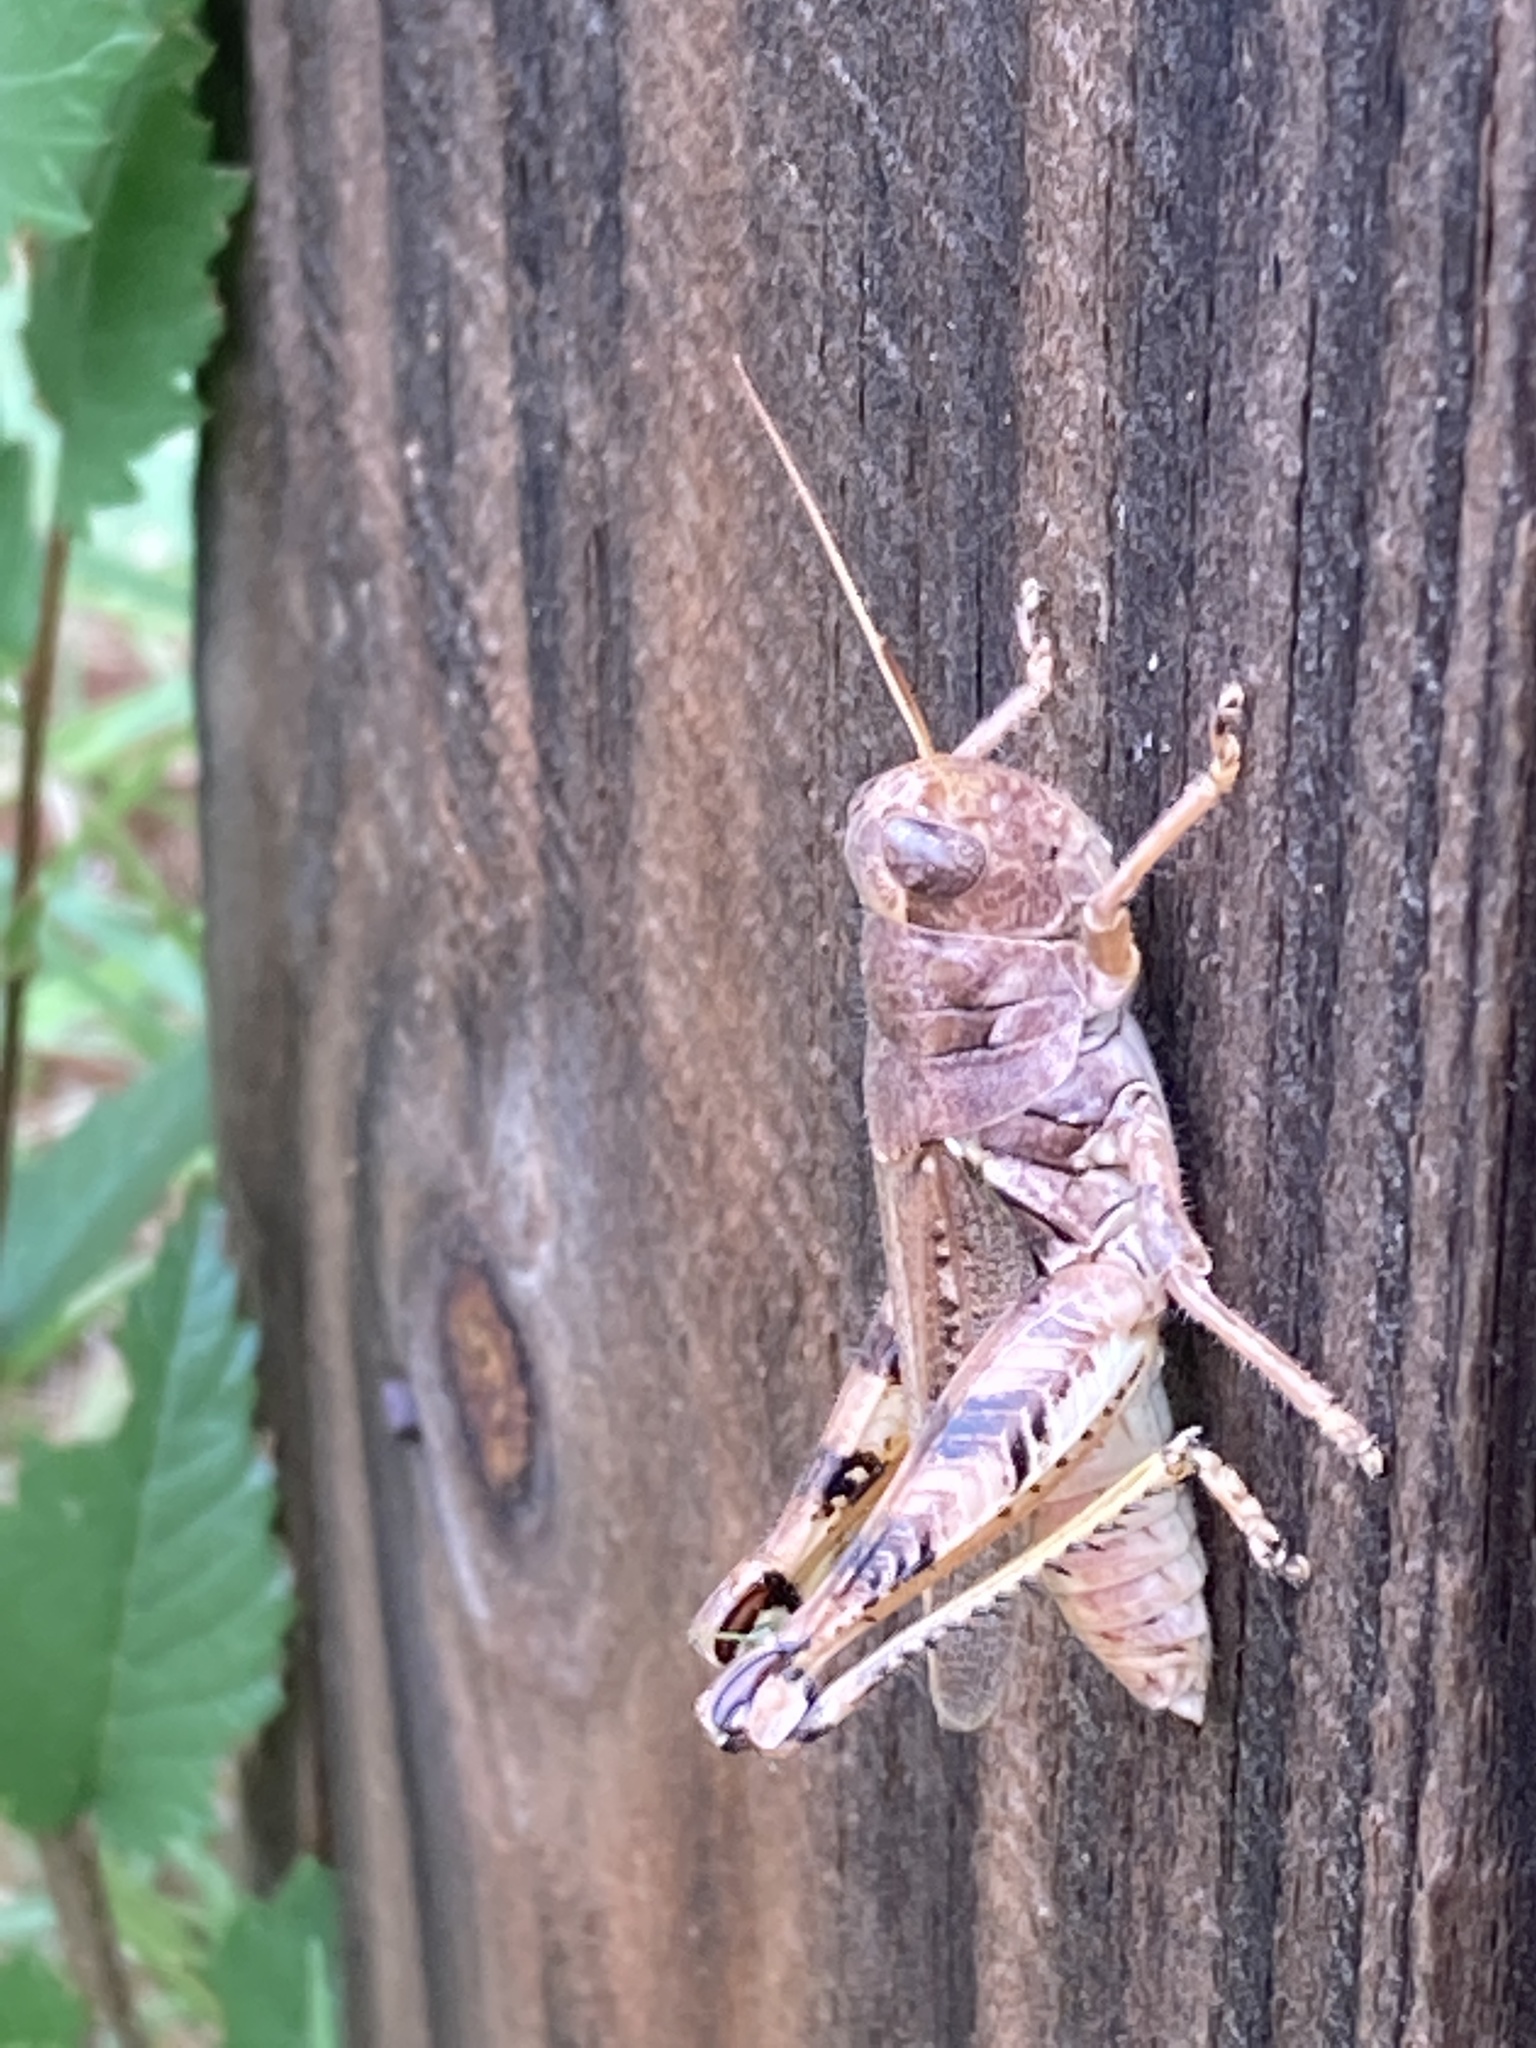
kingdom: Animalia
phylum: Arthropoda
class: Insecta
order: Orthoptera
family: Acrididae
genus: Melanoplus
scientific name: Melanoplus ponderosus
